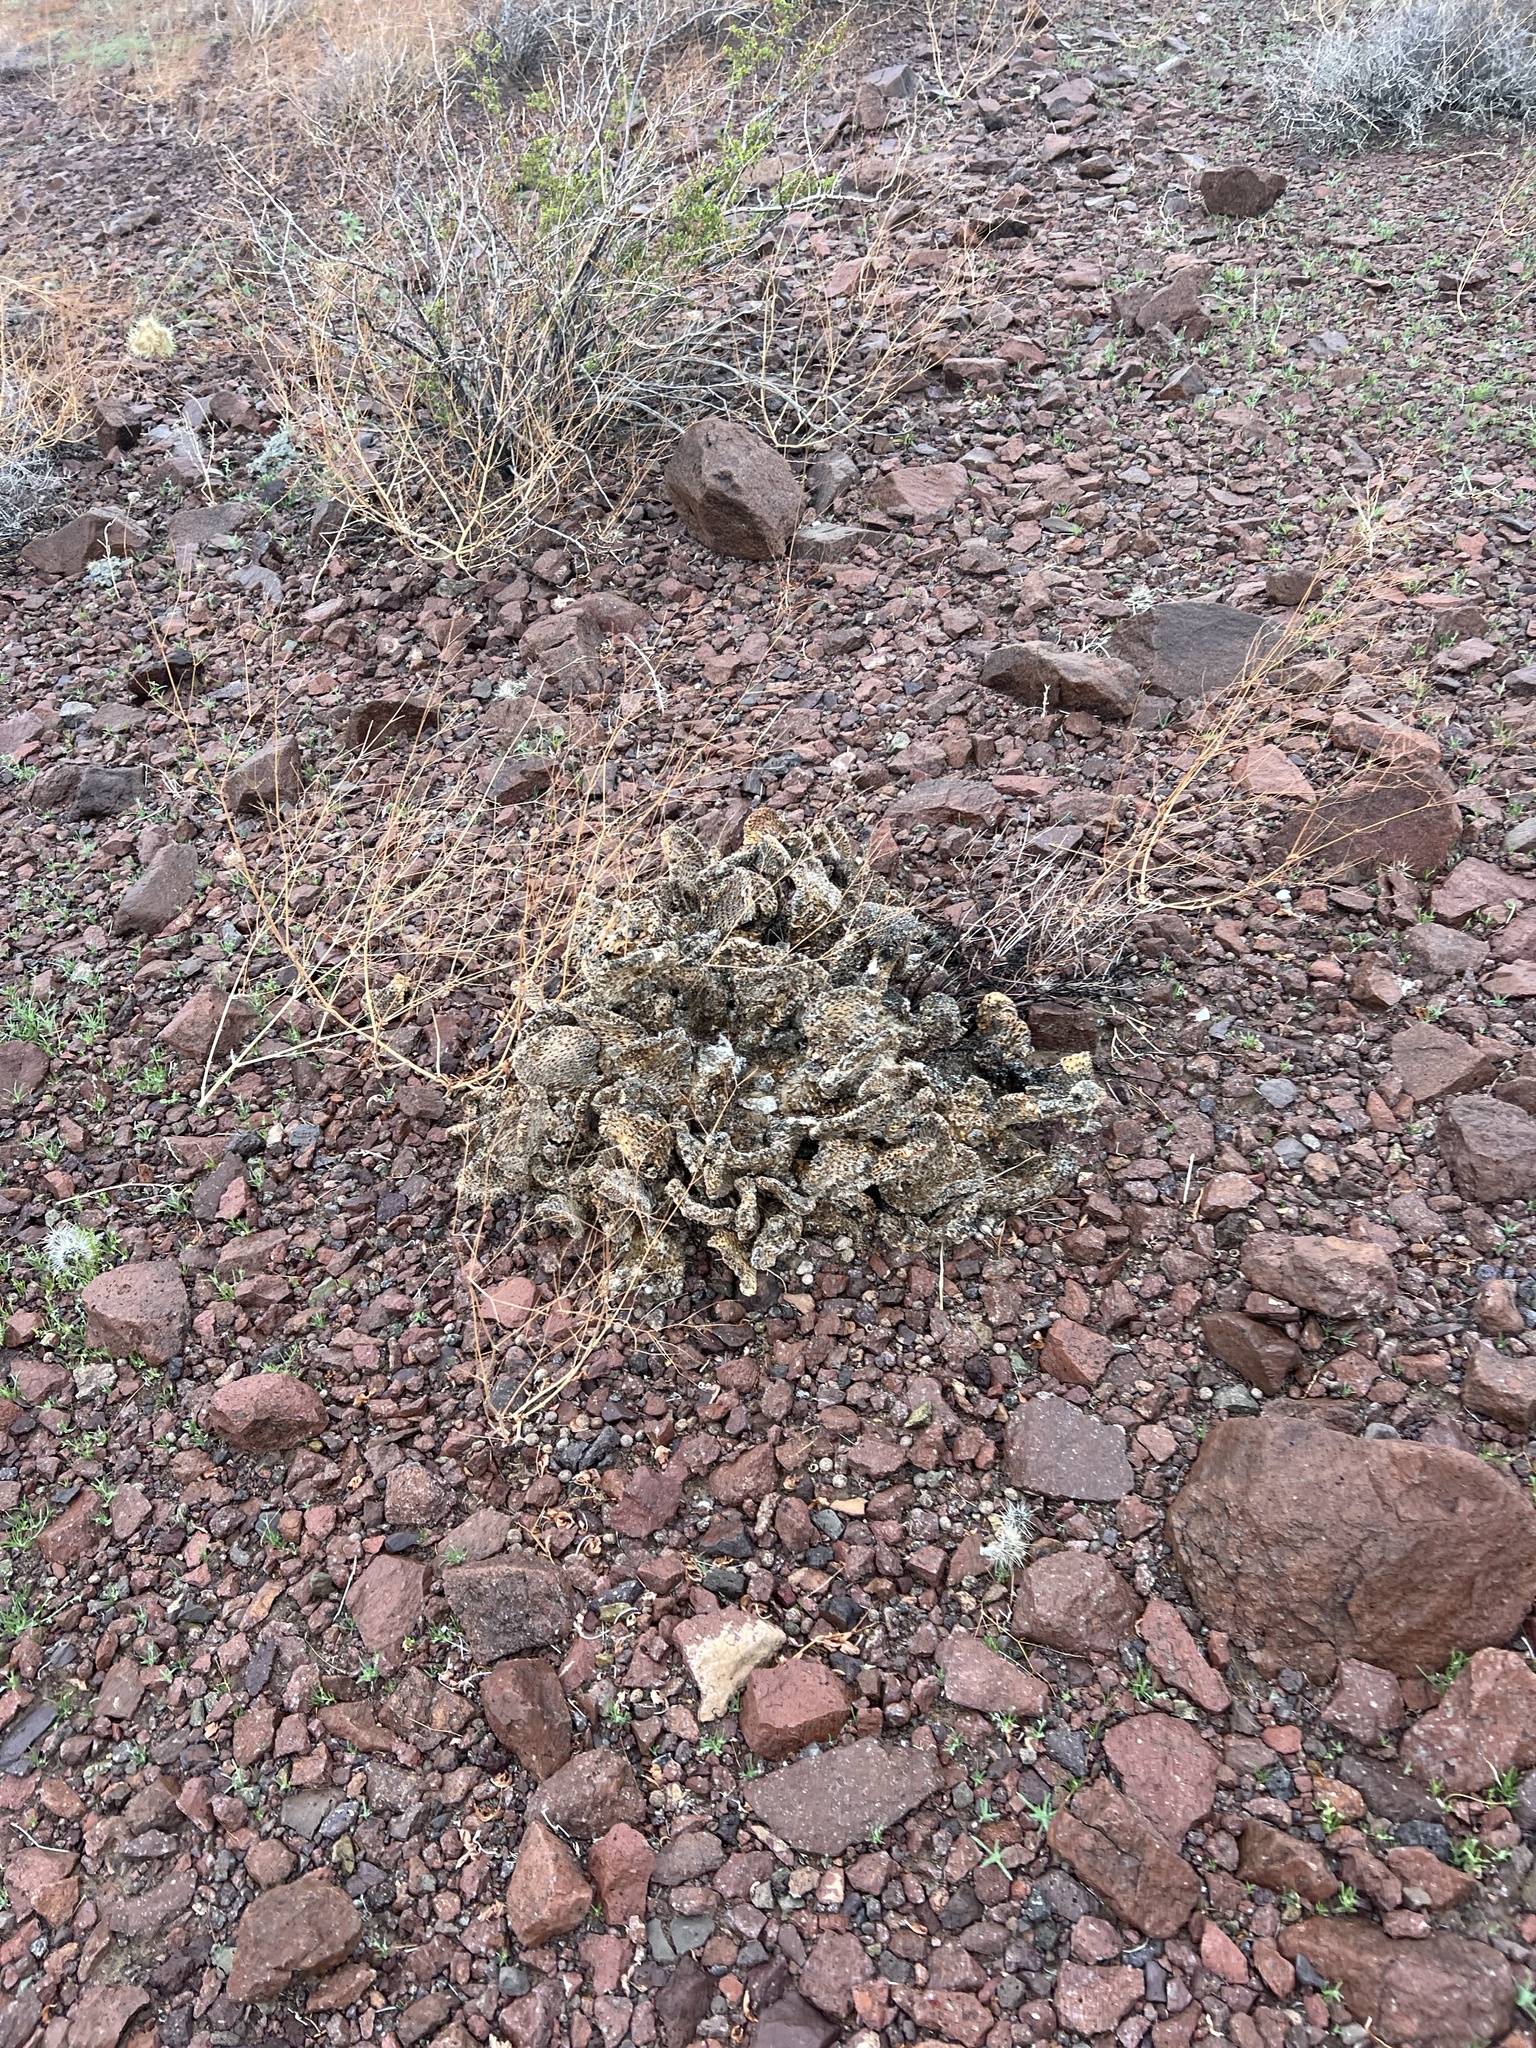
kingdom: Plantae
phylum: Tracheophyta
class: Magnoliopsida
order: Caryophyllales
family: Cactaceae
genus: Opuntia
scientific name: Opuntia basilaris
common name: Beavertail prickly-pear
